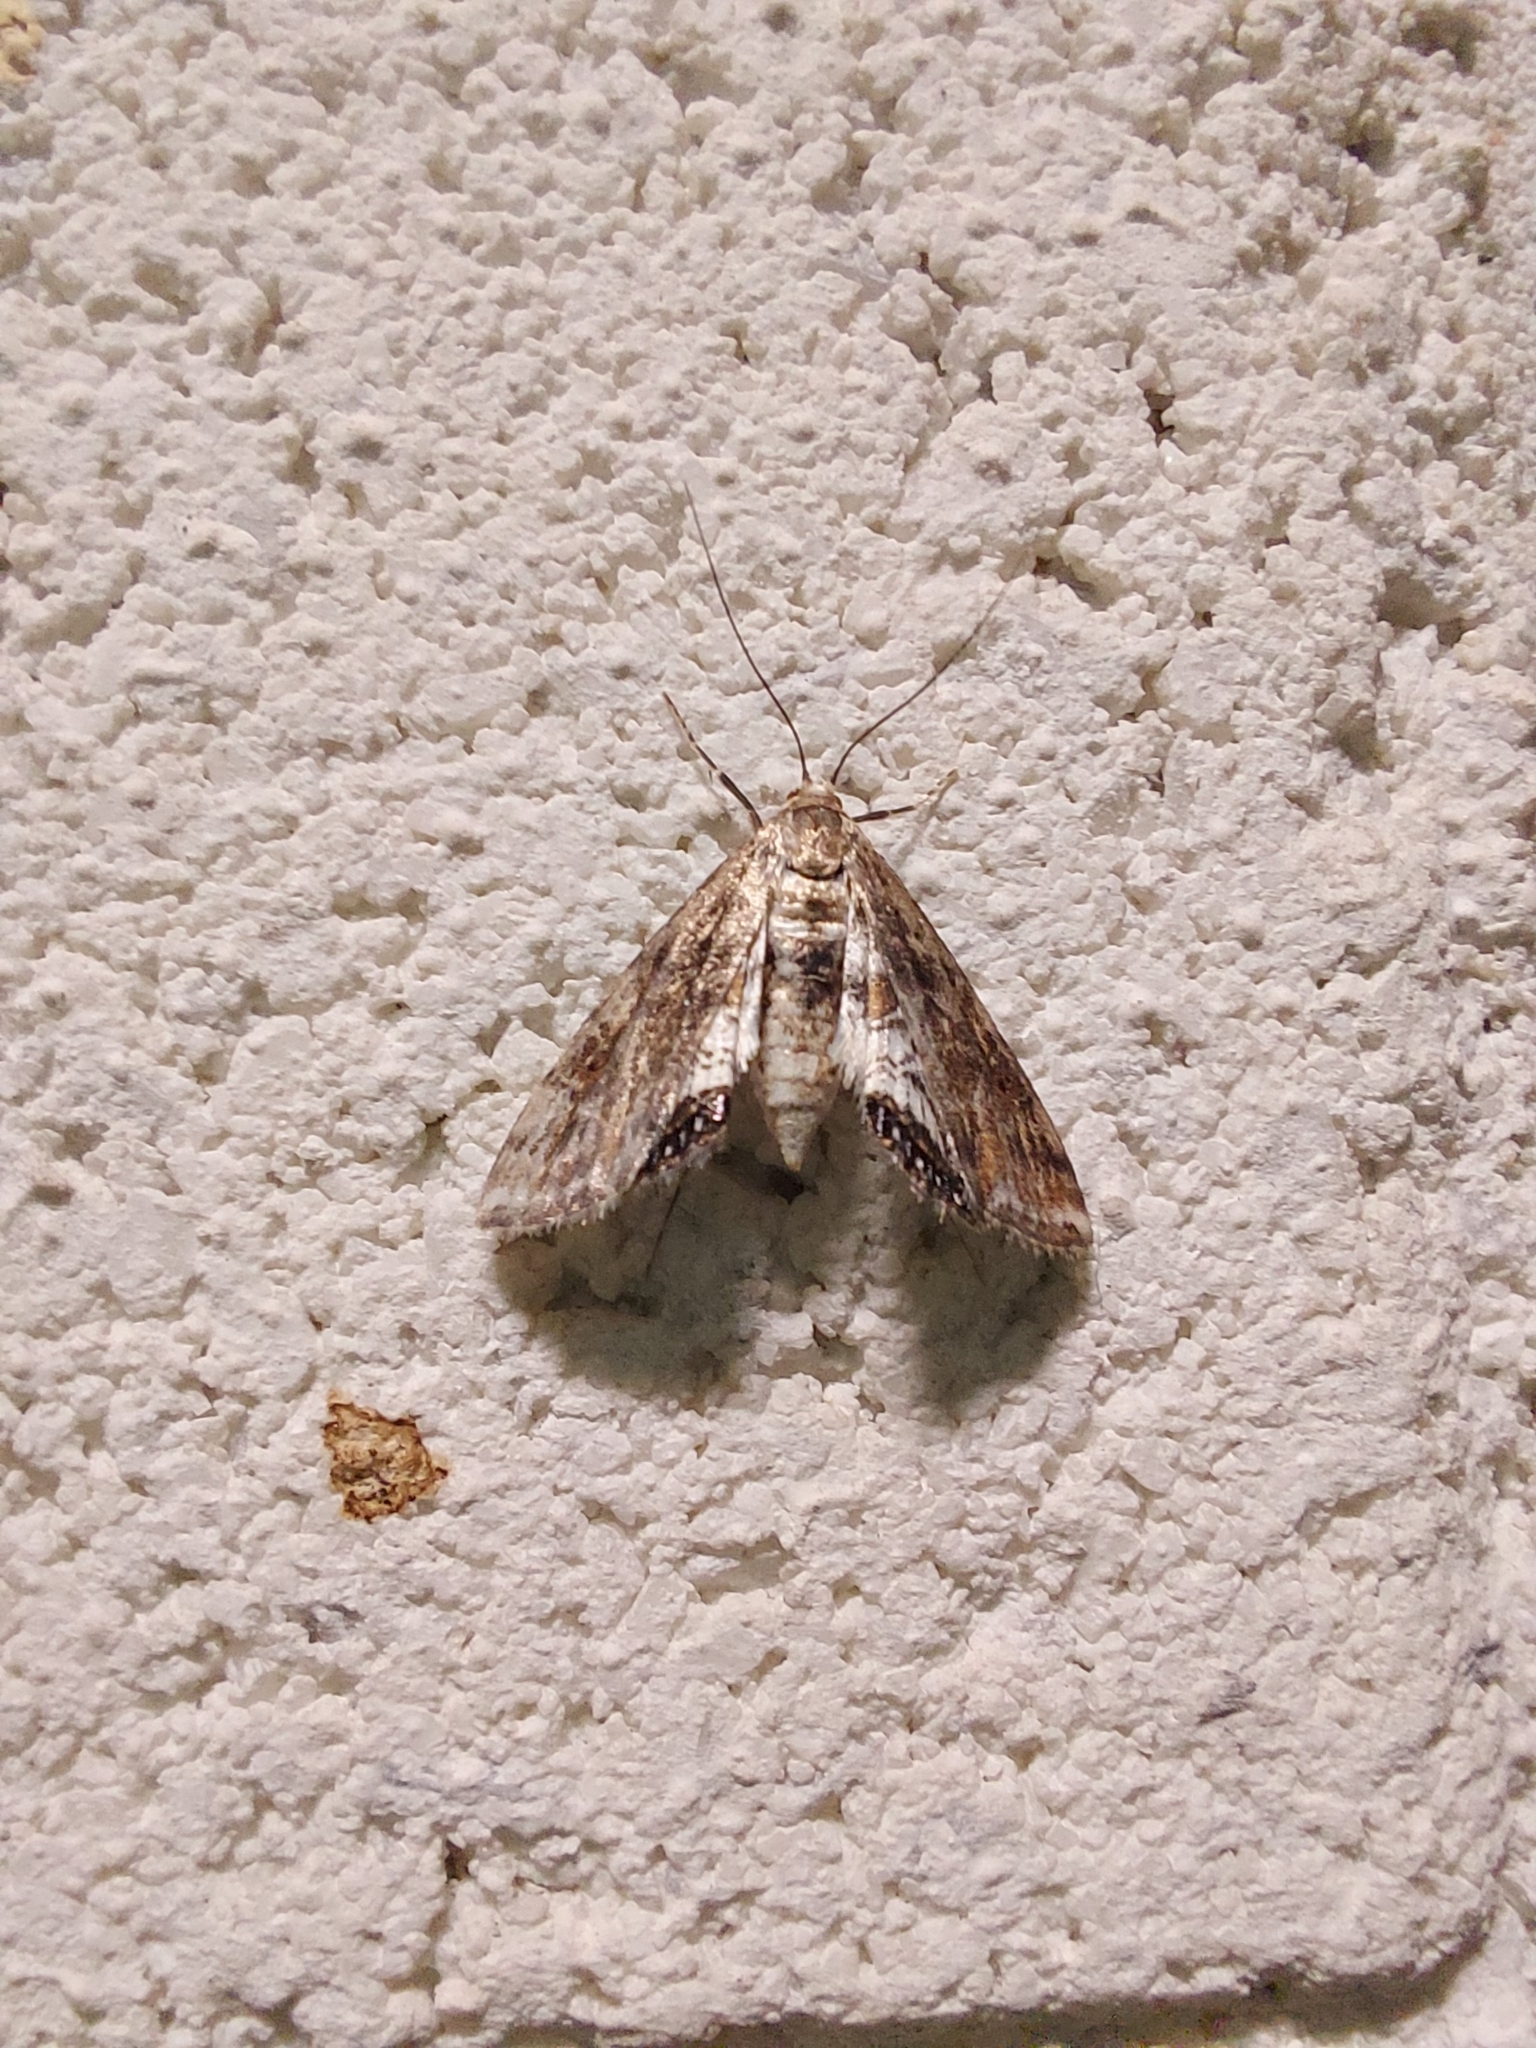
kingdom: Animalia
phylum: Arthropoda
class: Insecta
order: Lepidoptera
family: Crambidae
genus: Cataclysta
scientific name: Cataclysta lemnata
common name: Small china-mark
